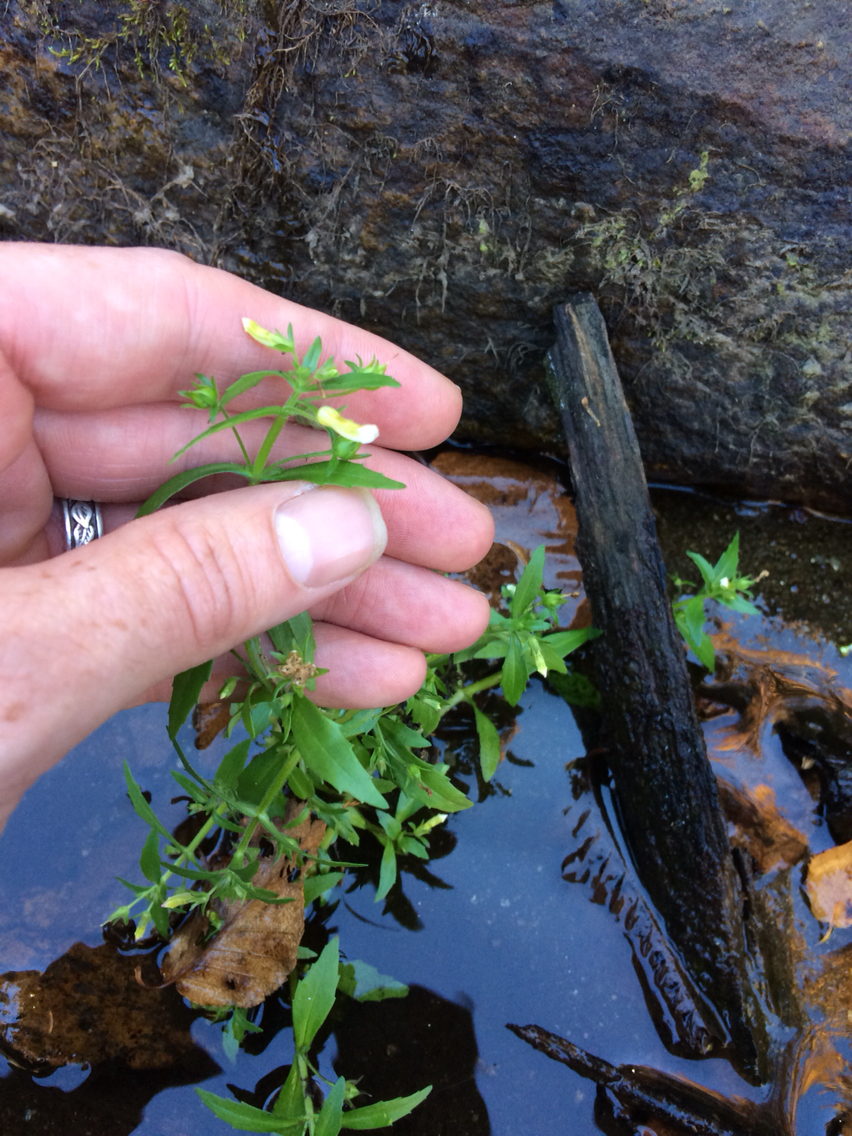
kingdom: Plantae
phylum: Tracheophyta
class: Magnoliopsida
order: Lamiales
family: Orobanchaceae
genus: Melampyrum
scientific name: Melampyrum lineare
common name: American cow-wheat
